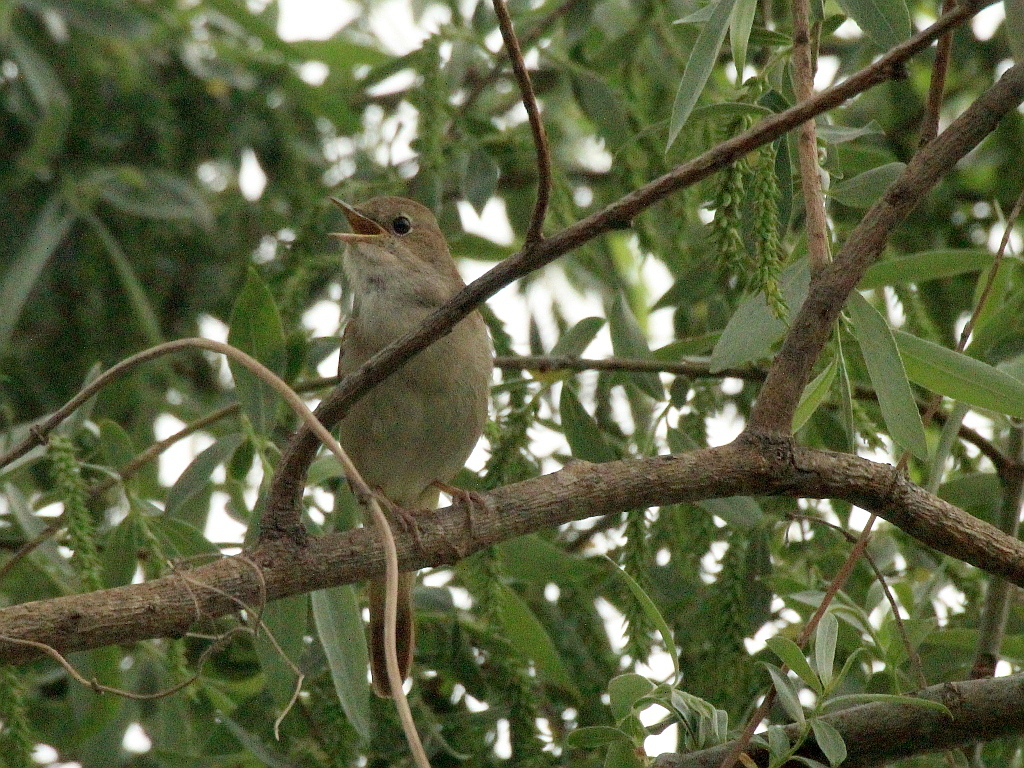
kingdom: Animalia
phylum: Chordata
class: Aves
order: Passeriformes
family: Muscicapidae
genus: Luscinia
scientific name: Luscinia megarhynchos
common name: Common nightingale
